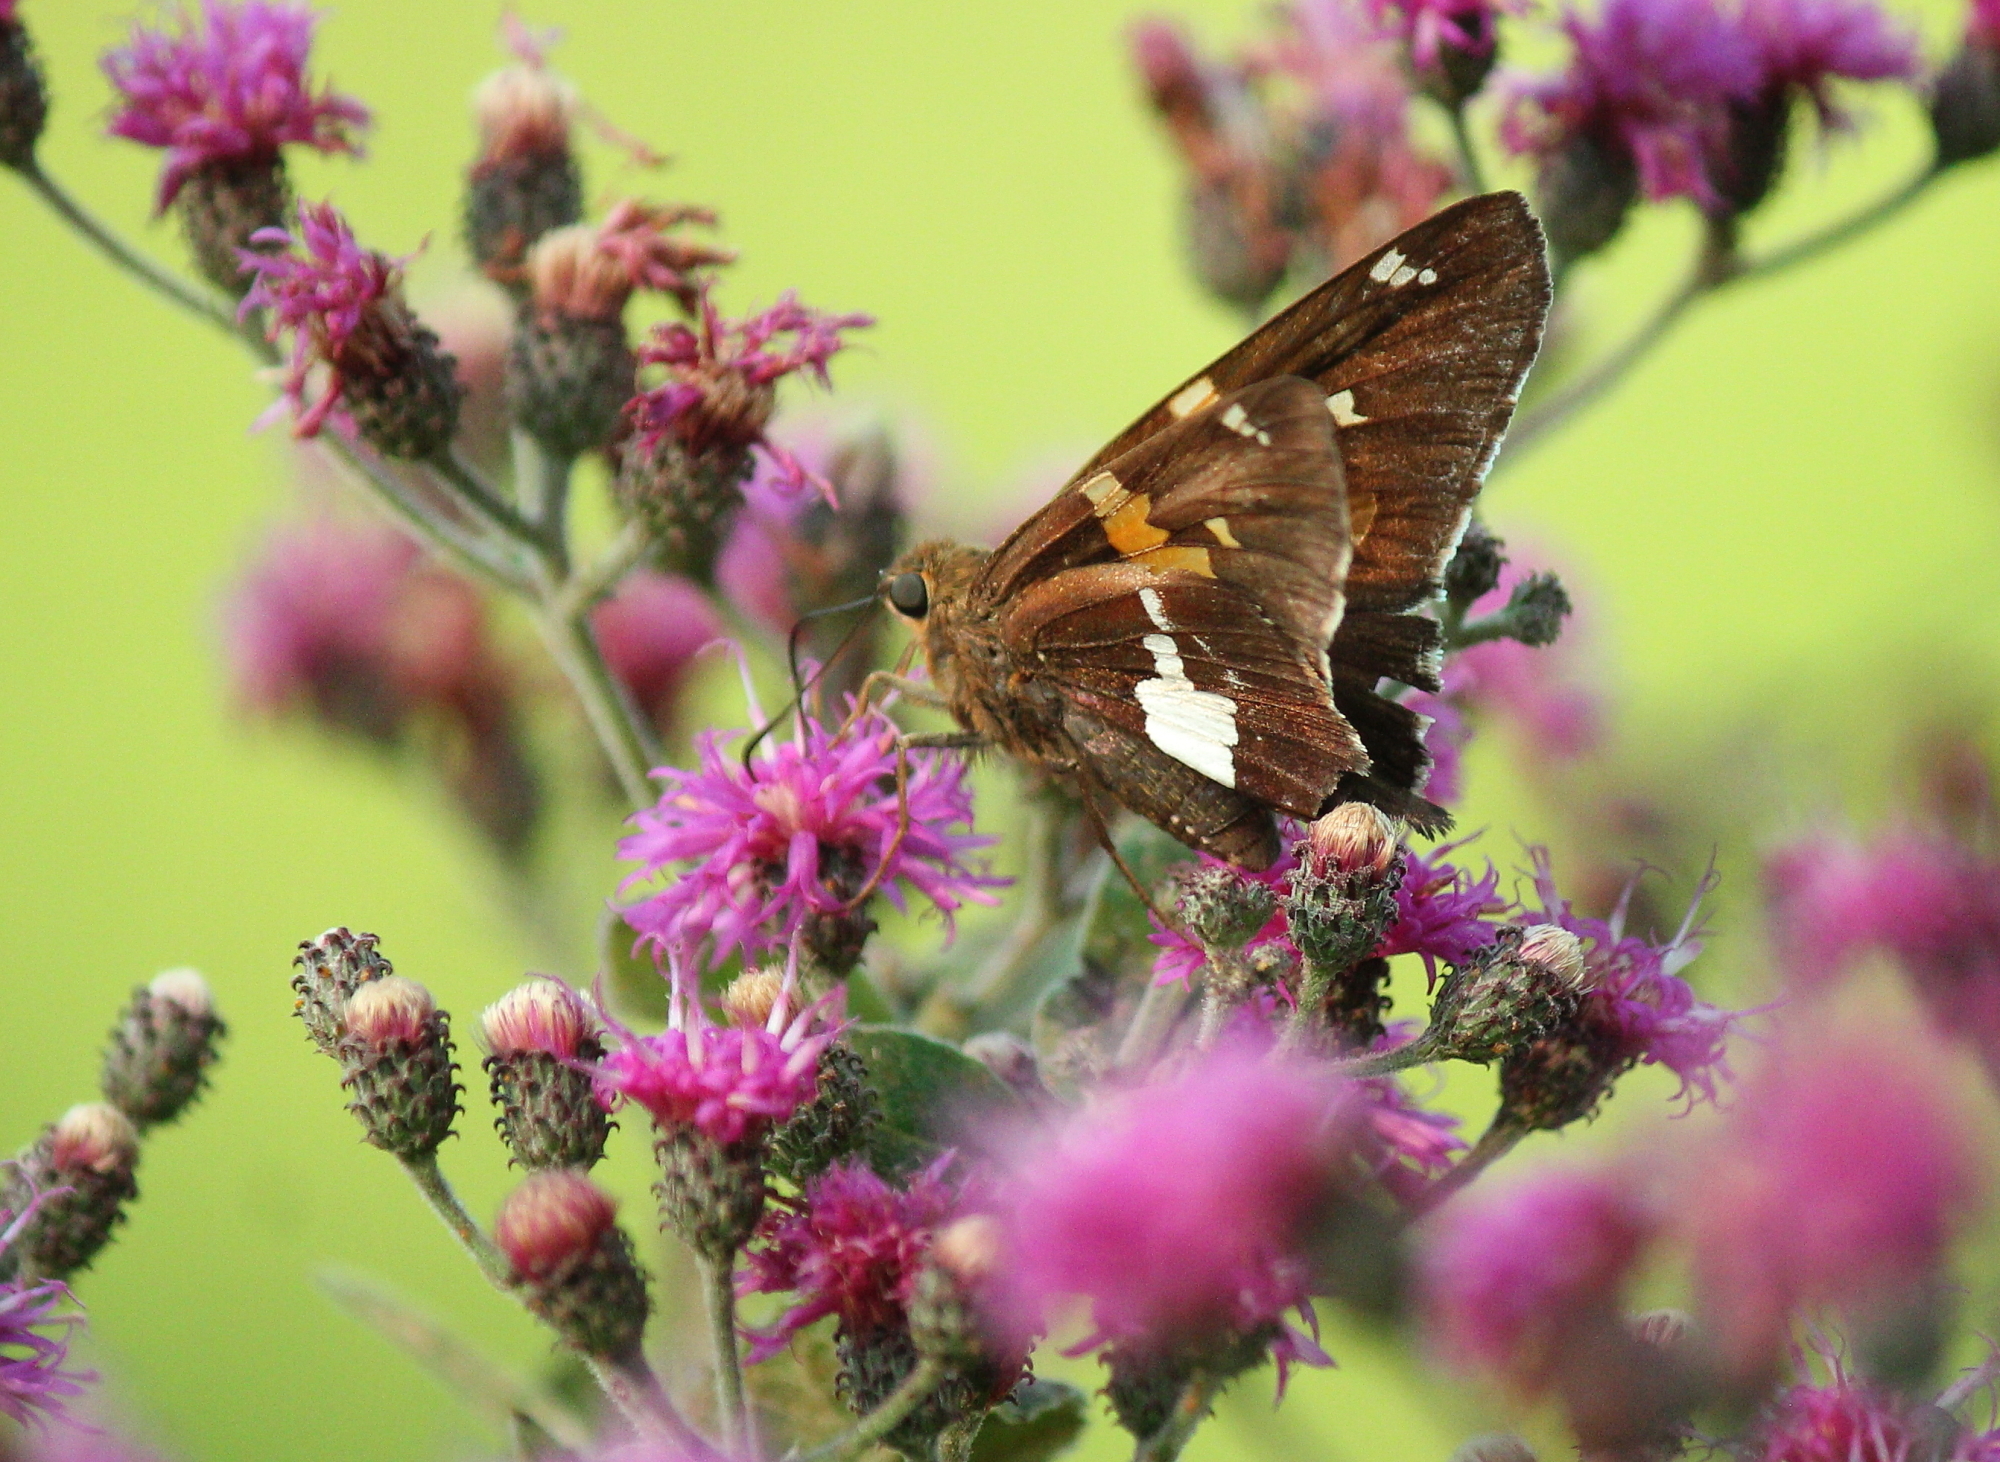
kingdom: Animalia
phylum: Arthropoda
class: Insecta
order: Lepidoptera
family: Hesperiidae
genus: Epargyreus
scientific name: Epargyreus clarus
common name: Silver-spotted skipper
